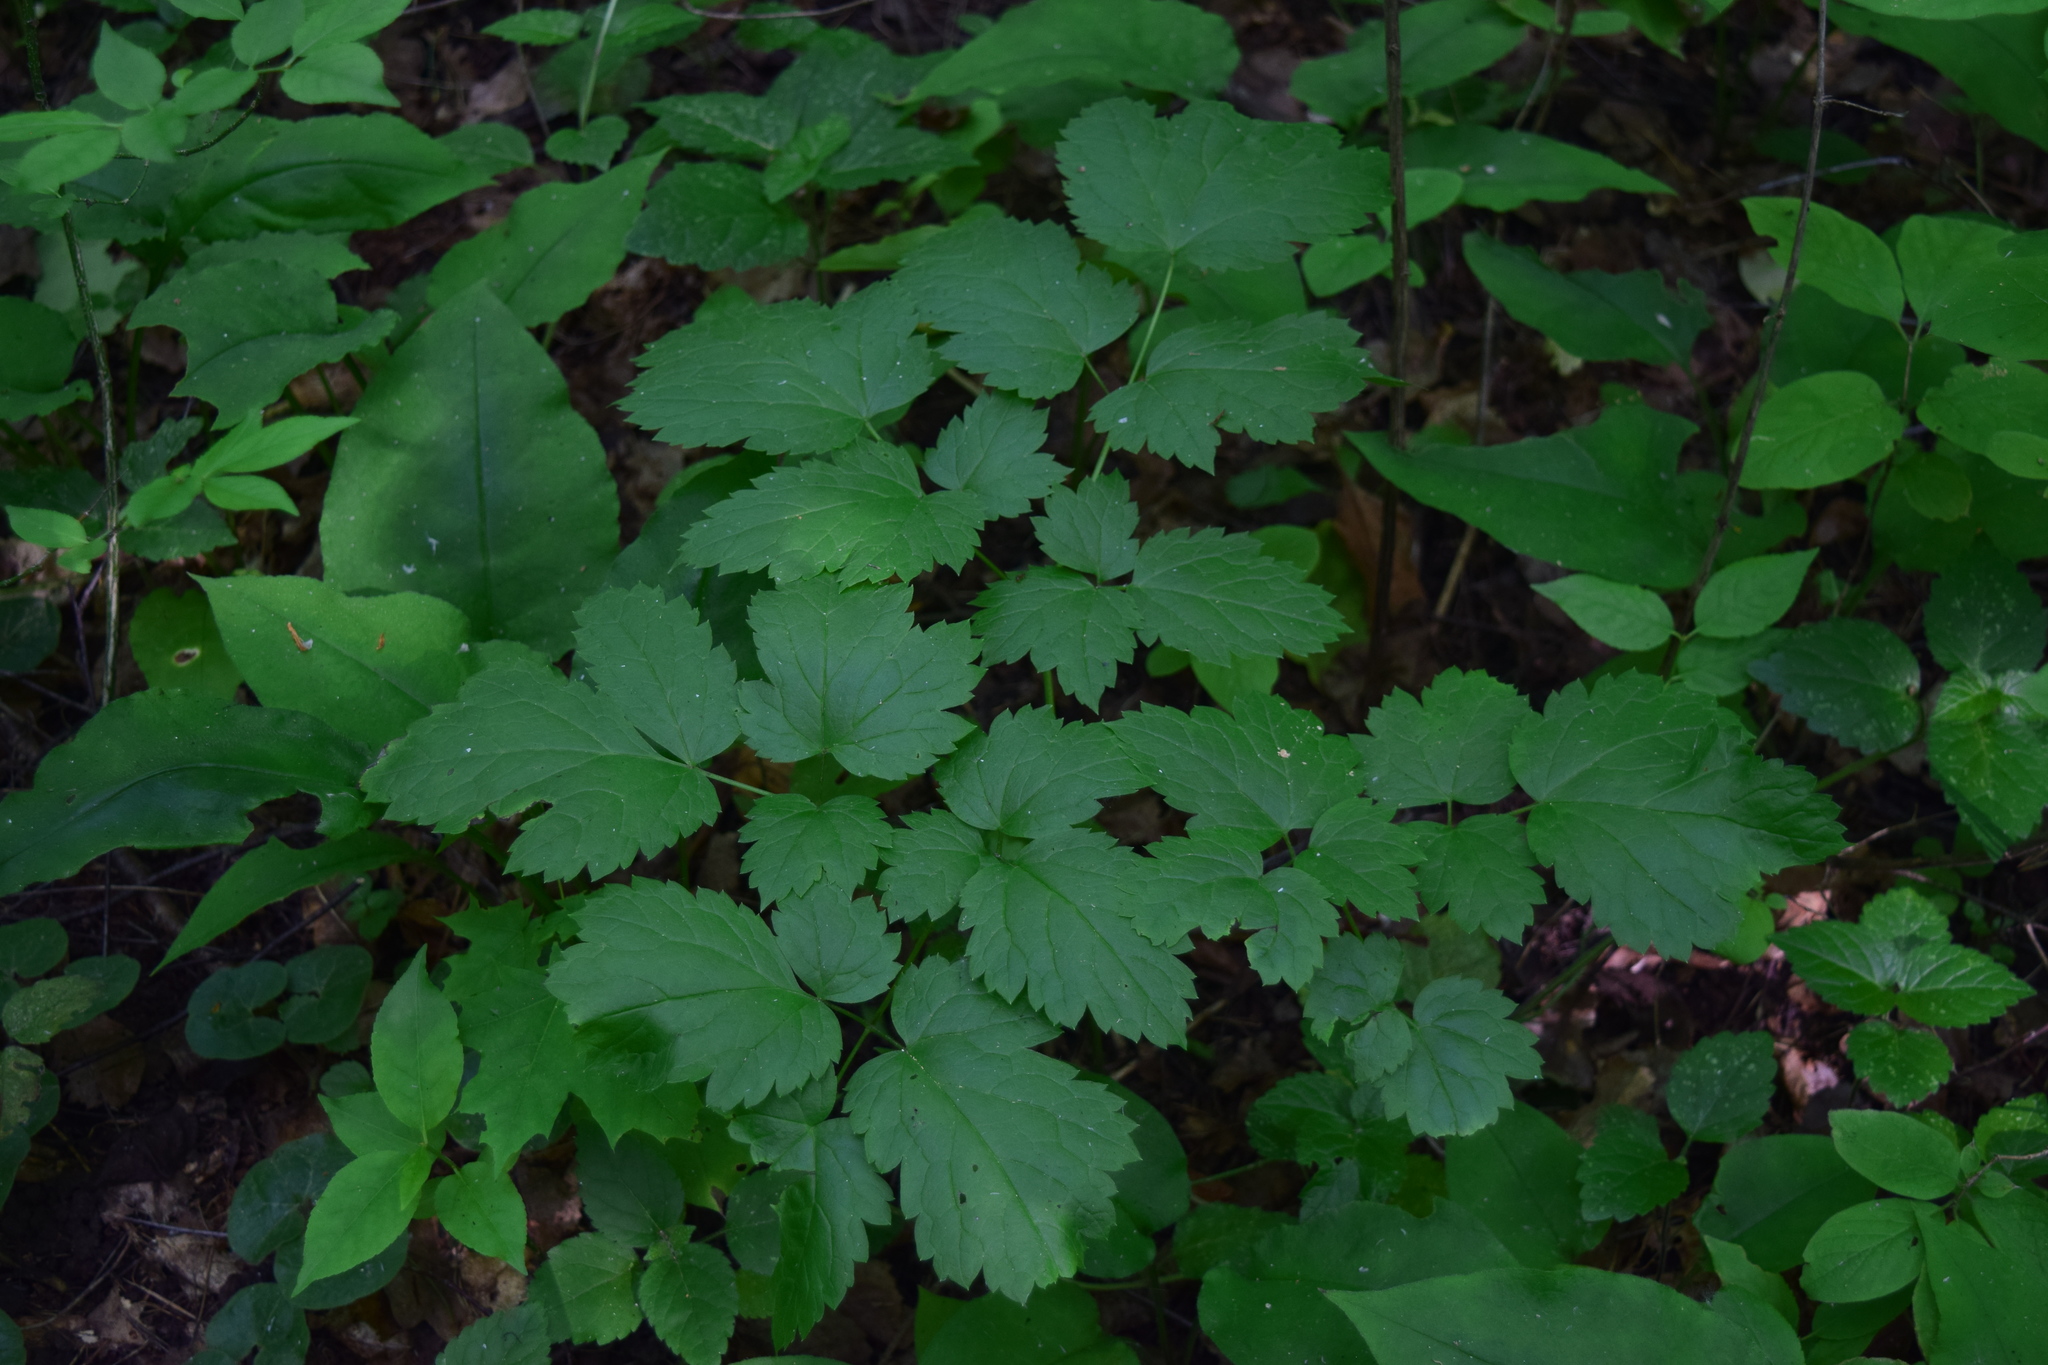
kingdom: Plantae
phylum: Tracheophyta
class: Magnoliopsida
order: Ranunculales
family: Ranunculaceae
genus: Actaea
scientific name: Actaea spicata
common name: Baneberry
